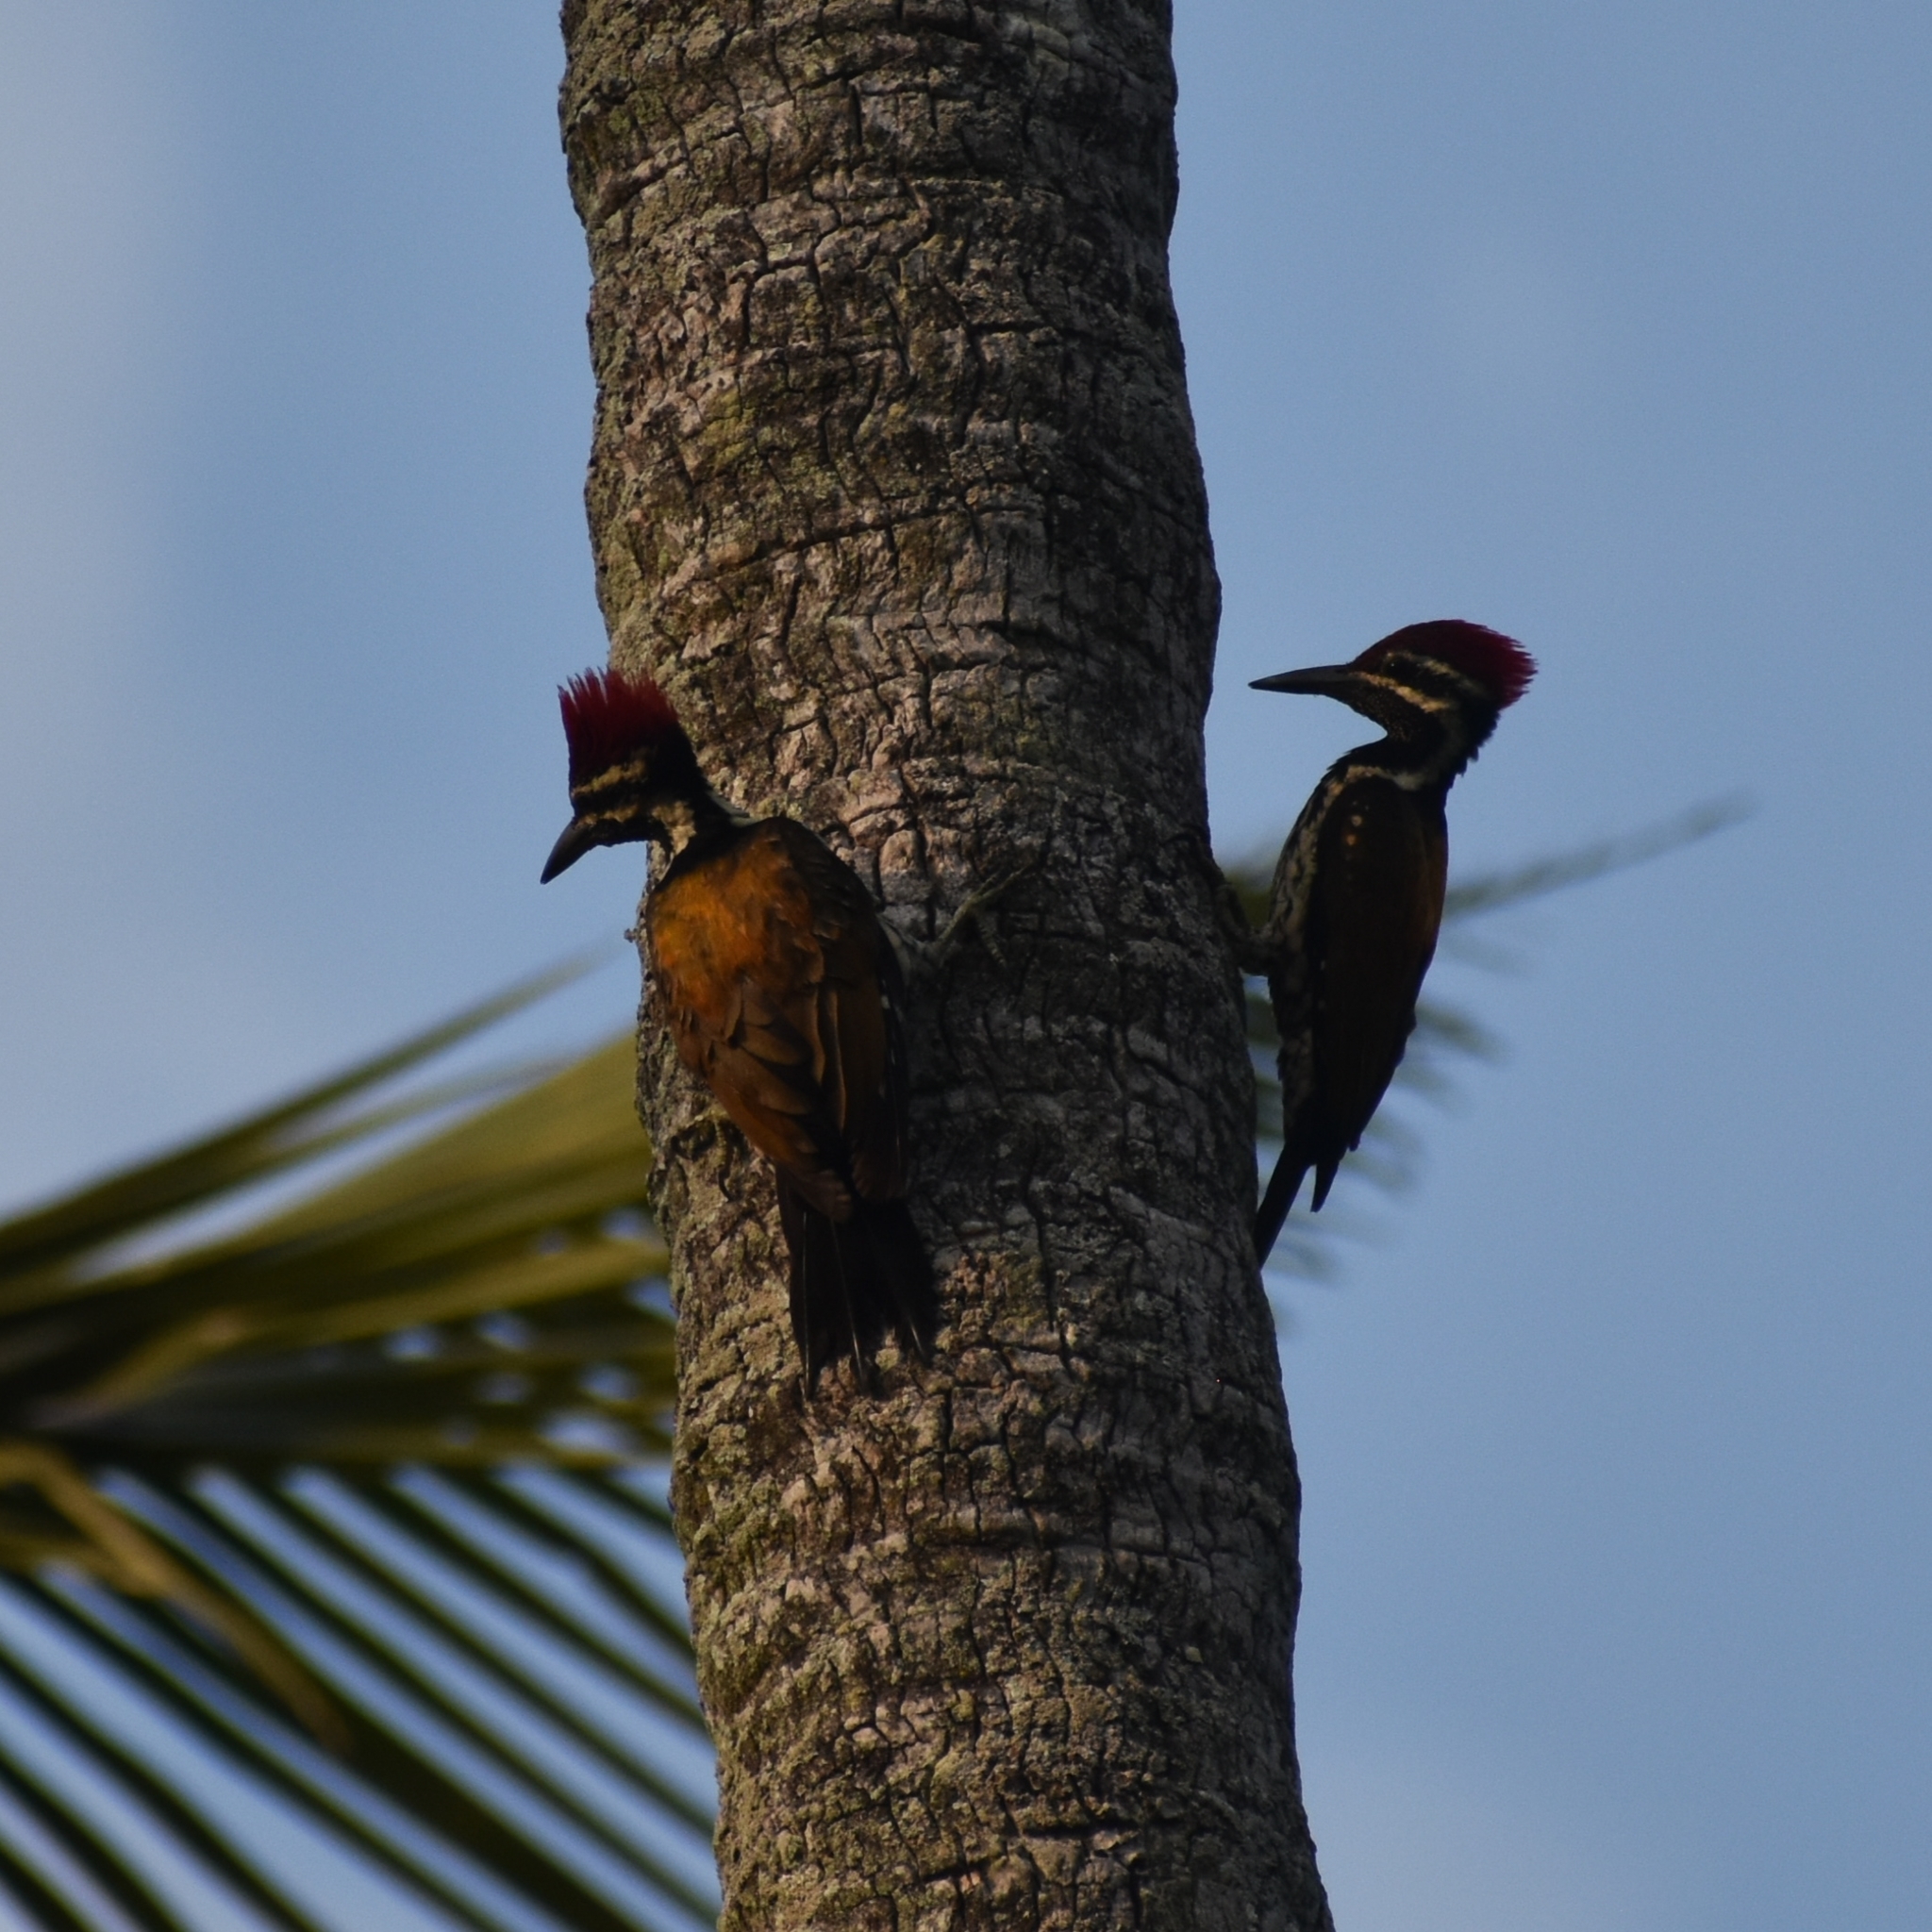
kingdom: Animalia
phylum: Chordata
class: Aves
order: Piciformes
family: Picidae
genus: Dinopium
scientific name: Dinopium benghalense
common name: Black-rumped flameback
